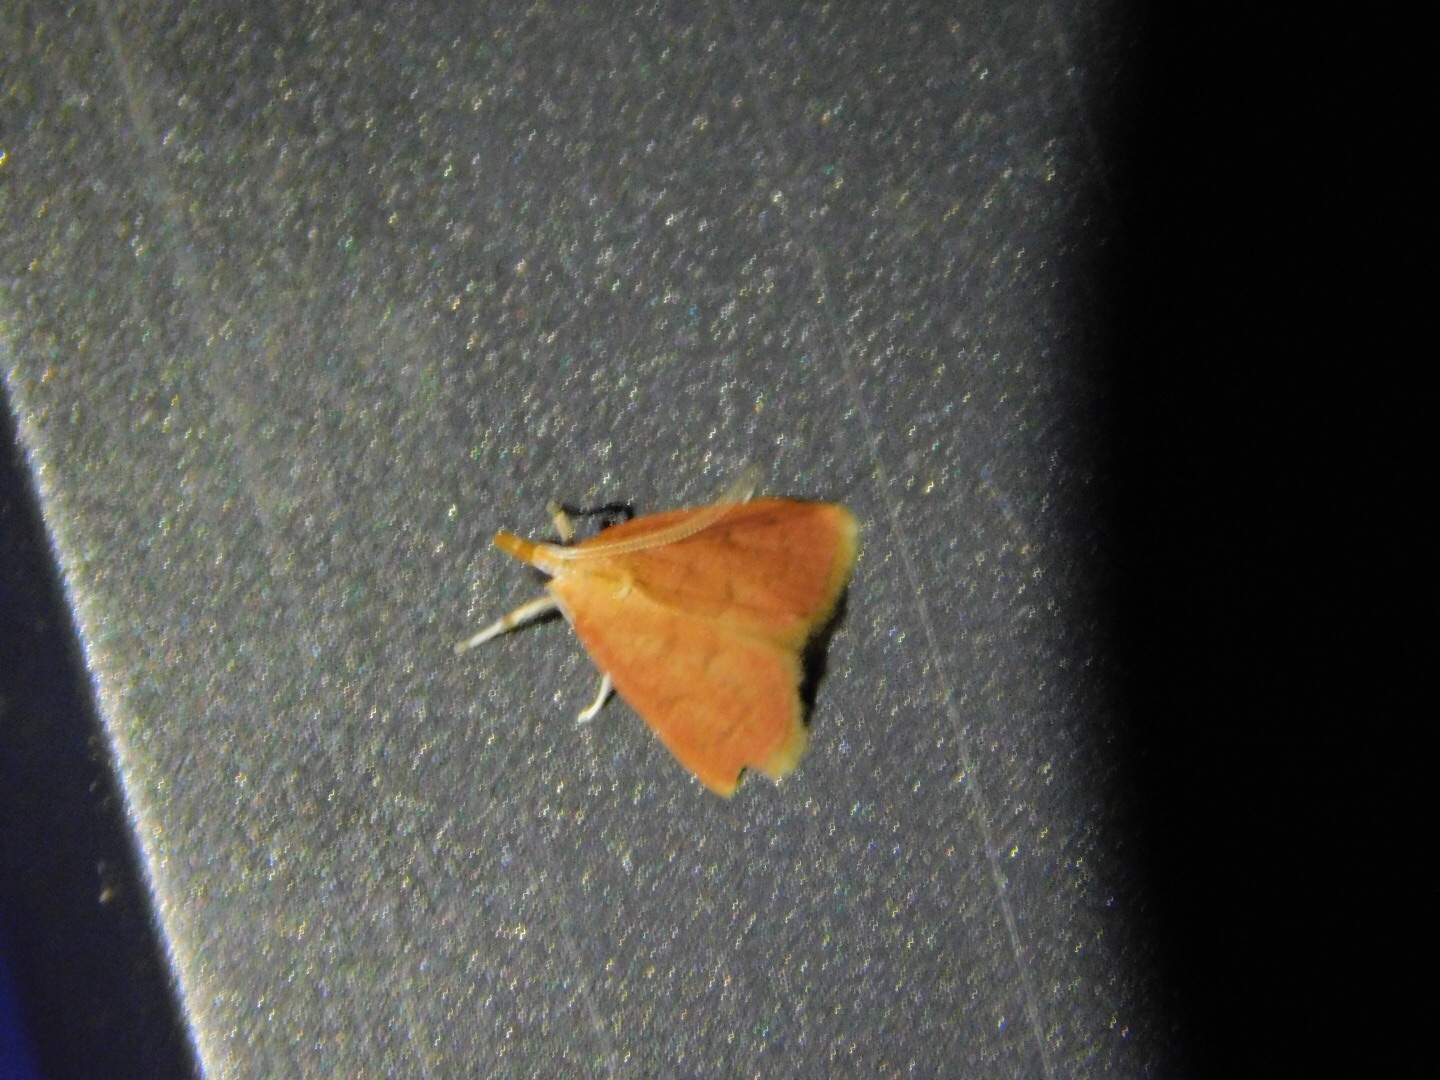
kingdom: Animalia
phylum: Arthropoda
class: Insecta
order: Lepidoptera
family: Crambidae
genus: Oenobotys
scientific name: Oenobotys vinotinctalis
